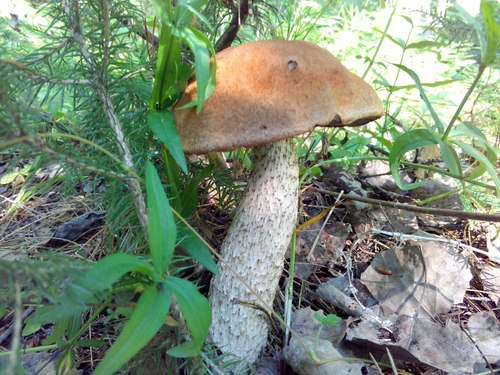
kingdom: Fungi
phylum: Basidiomycota
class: Agaricomycetes
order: Boletales
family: Boletaceae
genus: Leccinum
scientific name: Leccinum albostipitatum
